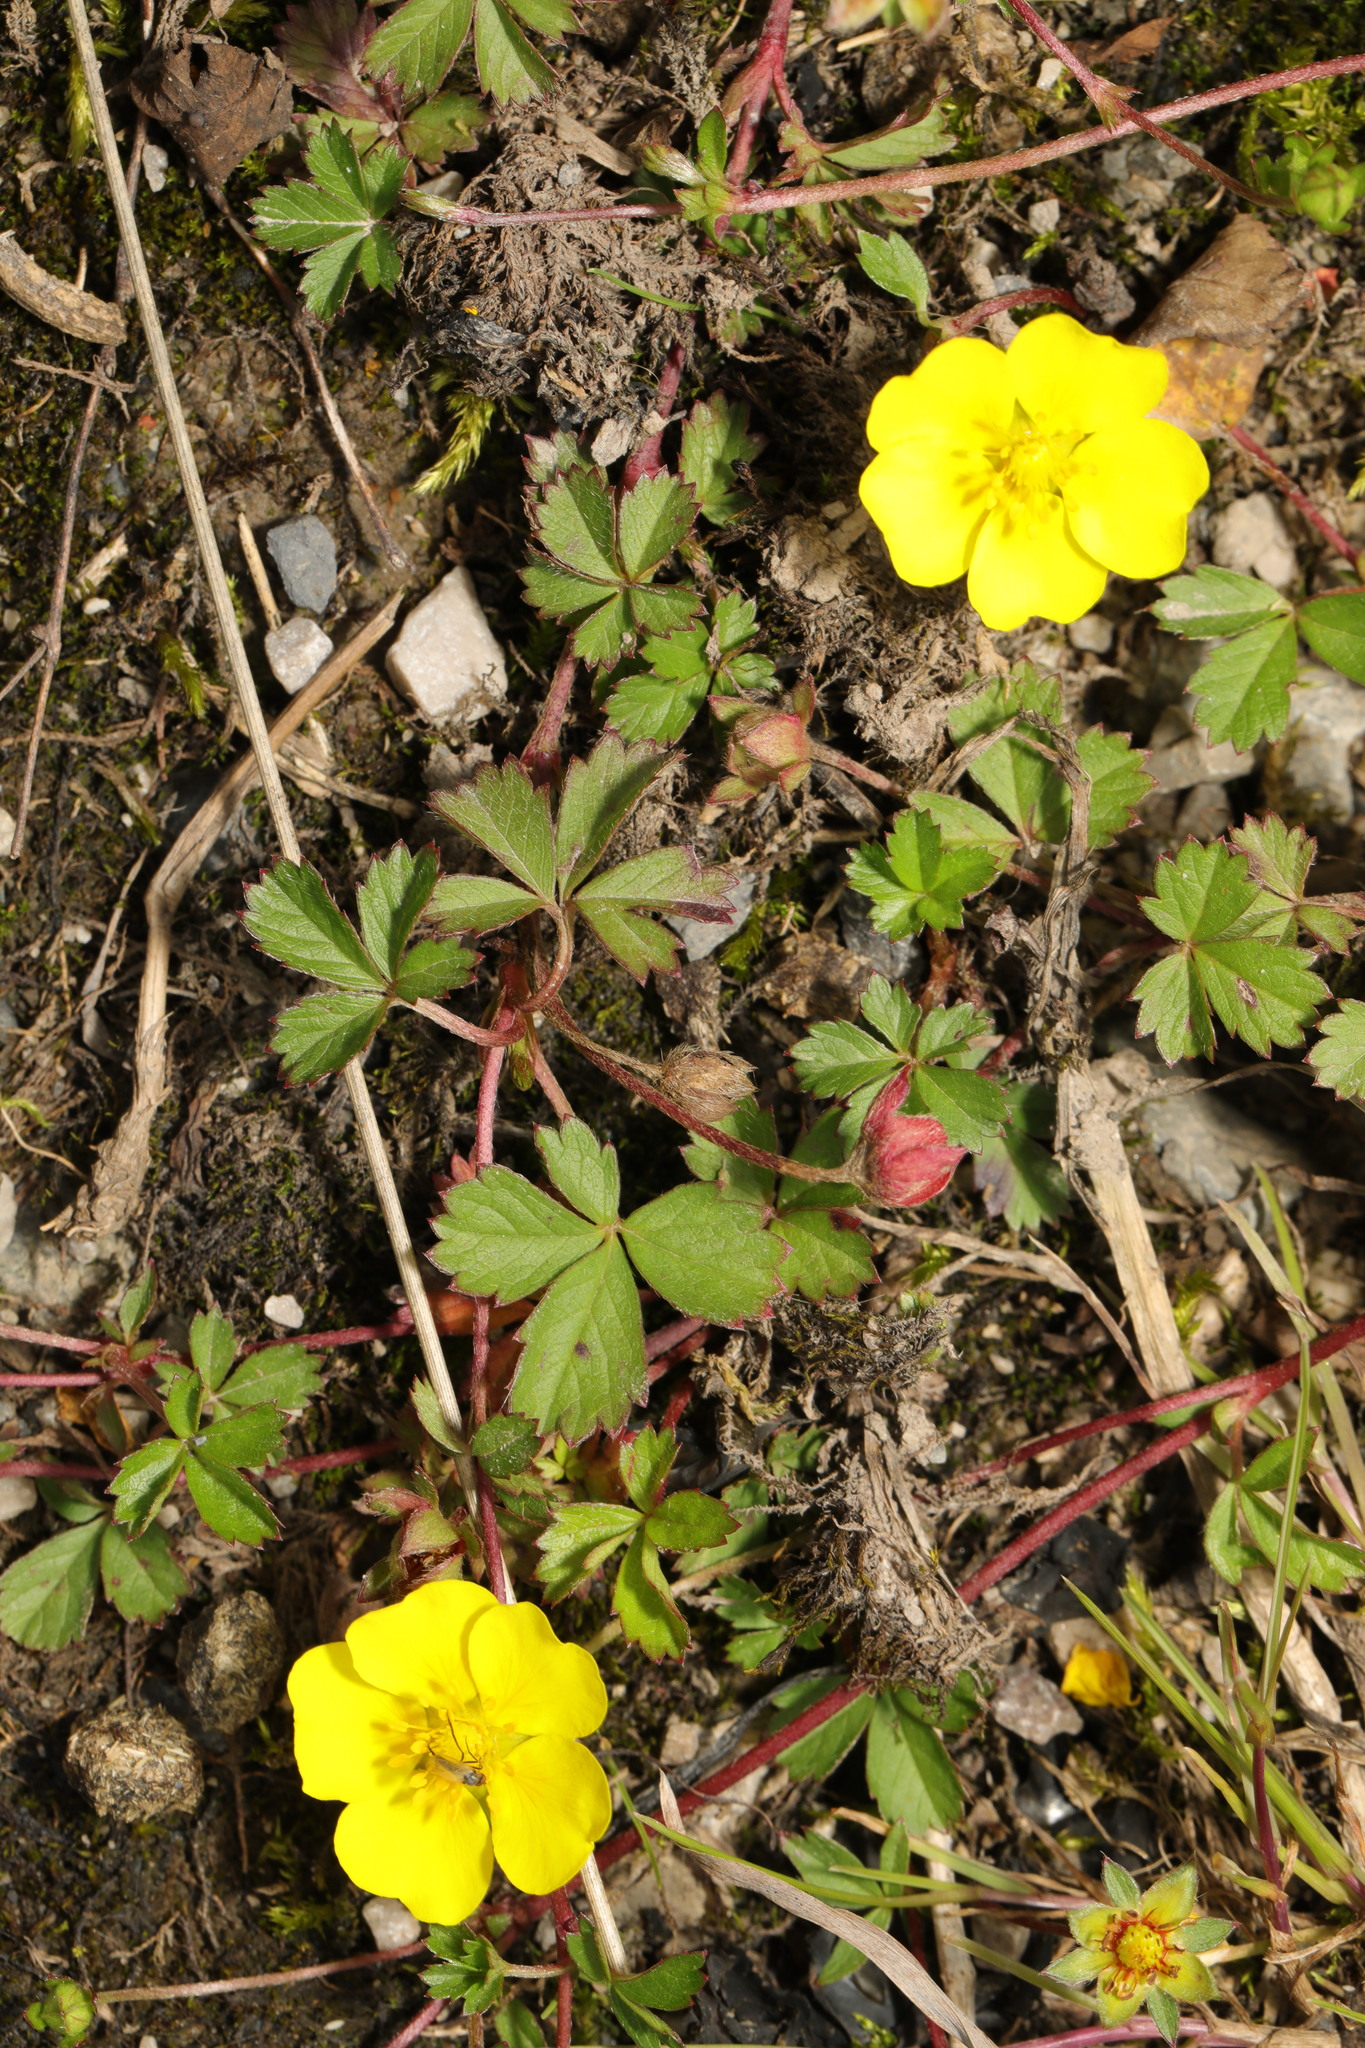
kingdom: Plantae
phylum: Tracheophyta
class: Magnoliopsida
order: Rosales
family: Rosaceae
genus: Potentilla
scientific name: Potentilla reptans
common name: Creeping cinquefoil
